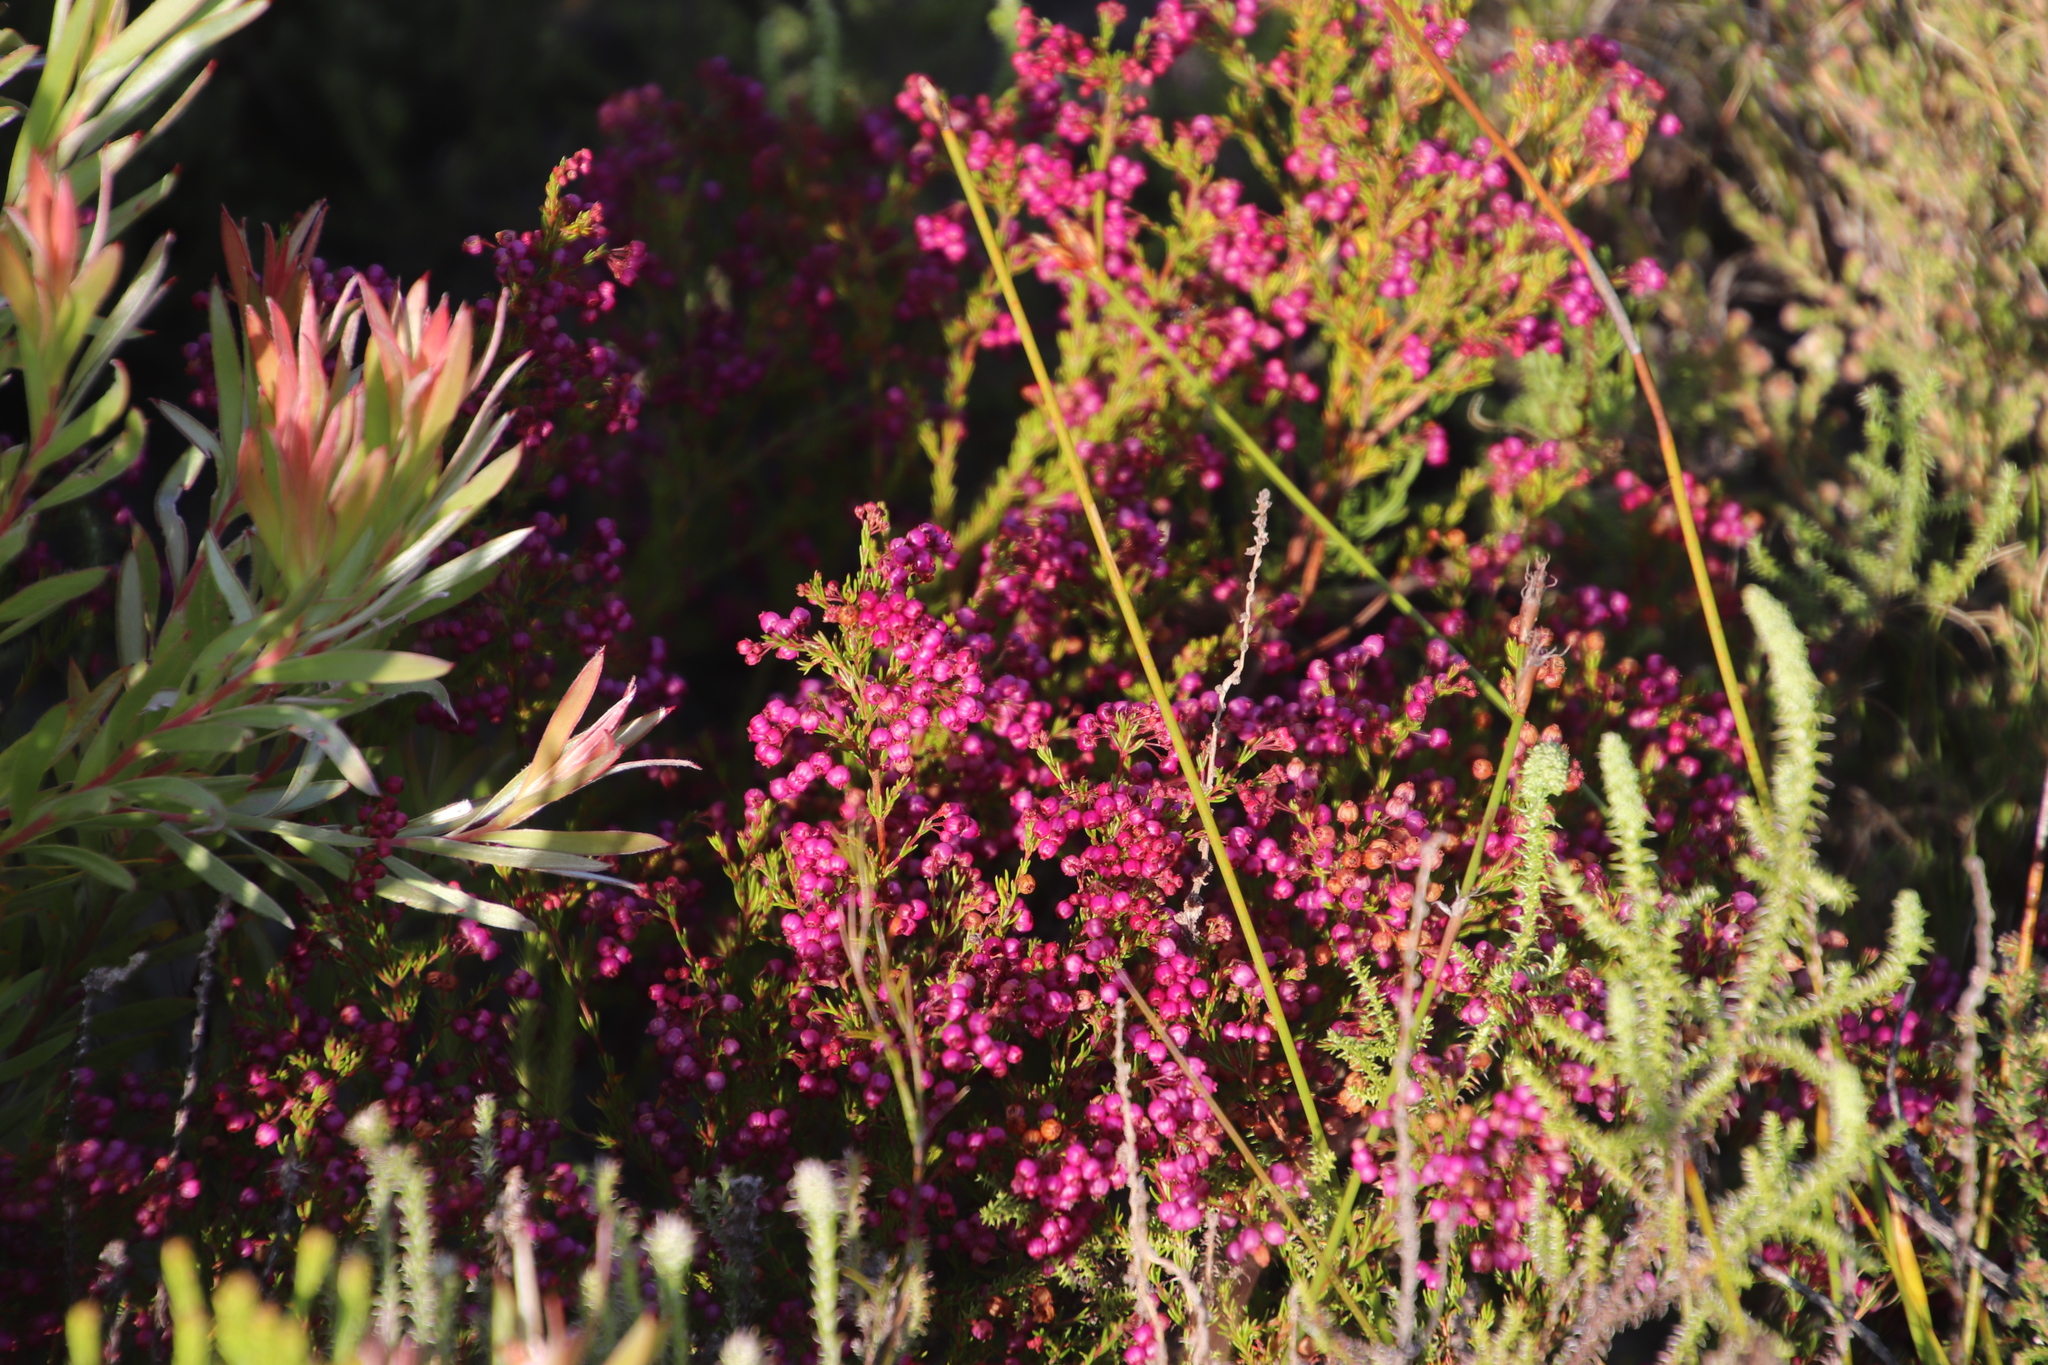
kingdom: Plantae
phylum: Tracheophyta
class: Magnoliopsida
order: Ericales
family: Ericaceae
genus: Erica
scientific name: Erica multumbellifera
